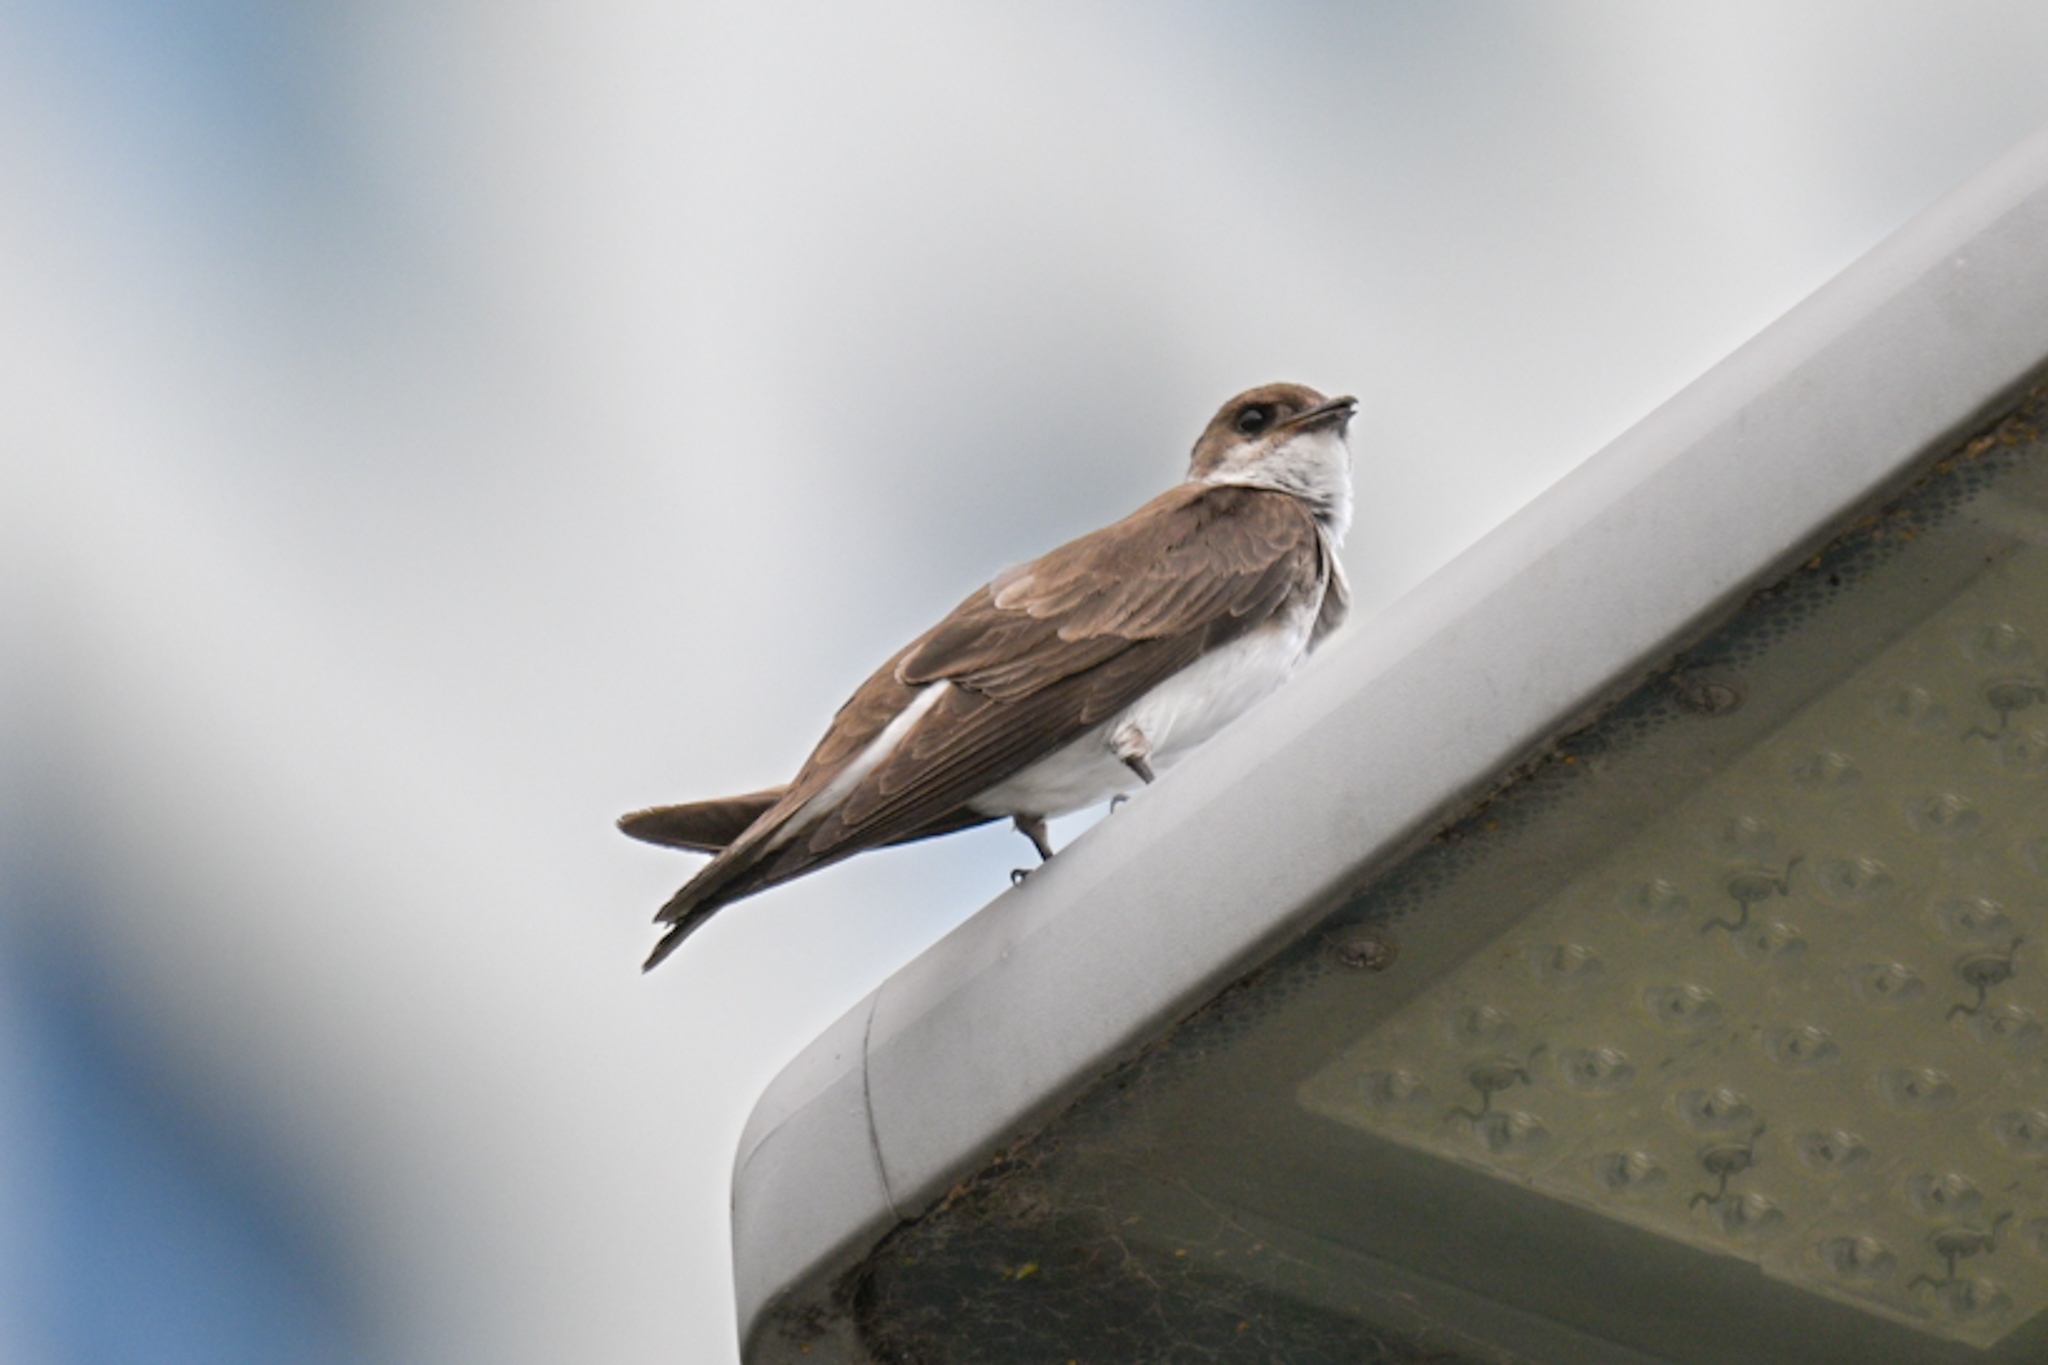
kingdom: Animalia
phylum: Chordata
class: Aves
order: Passeriformes
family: Hirundinidae
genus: Progne
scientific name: Progne tapera
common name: Brown-chested martin
